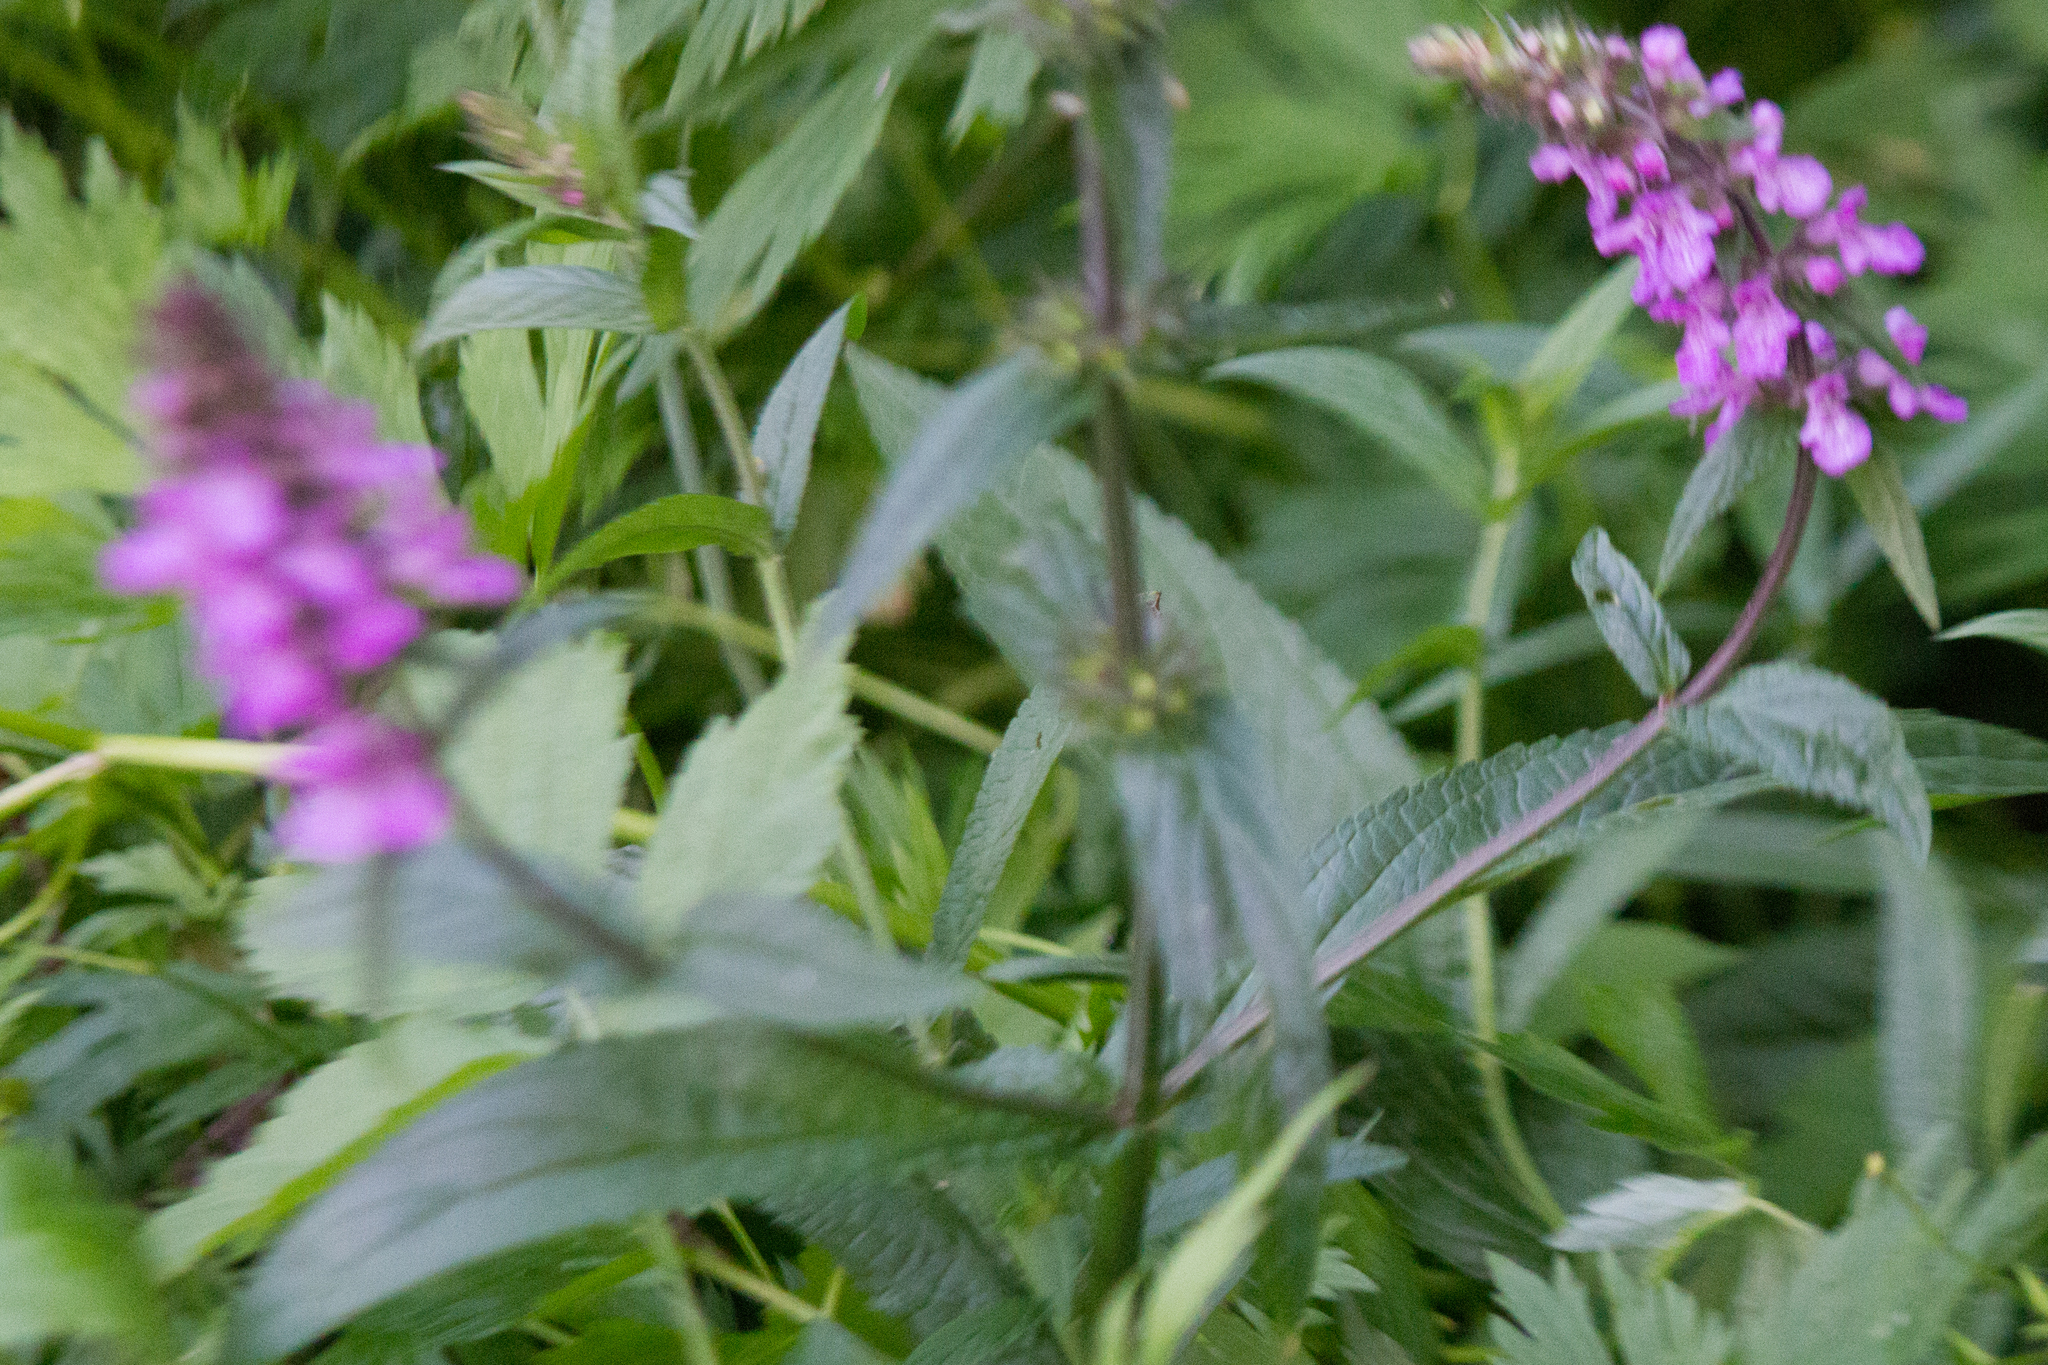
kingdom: Plantae
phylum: Tracheophyta
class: Magnoliopsida
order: Lamiales
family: Lamiaceae
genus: Stachys
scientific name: Stachys palustris
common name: Marsh woundwort
